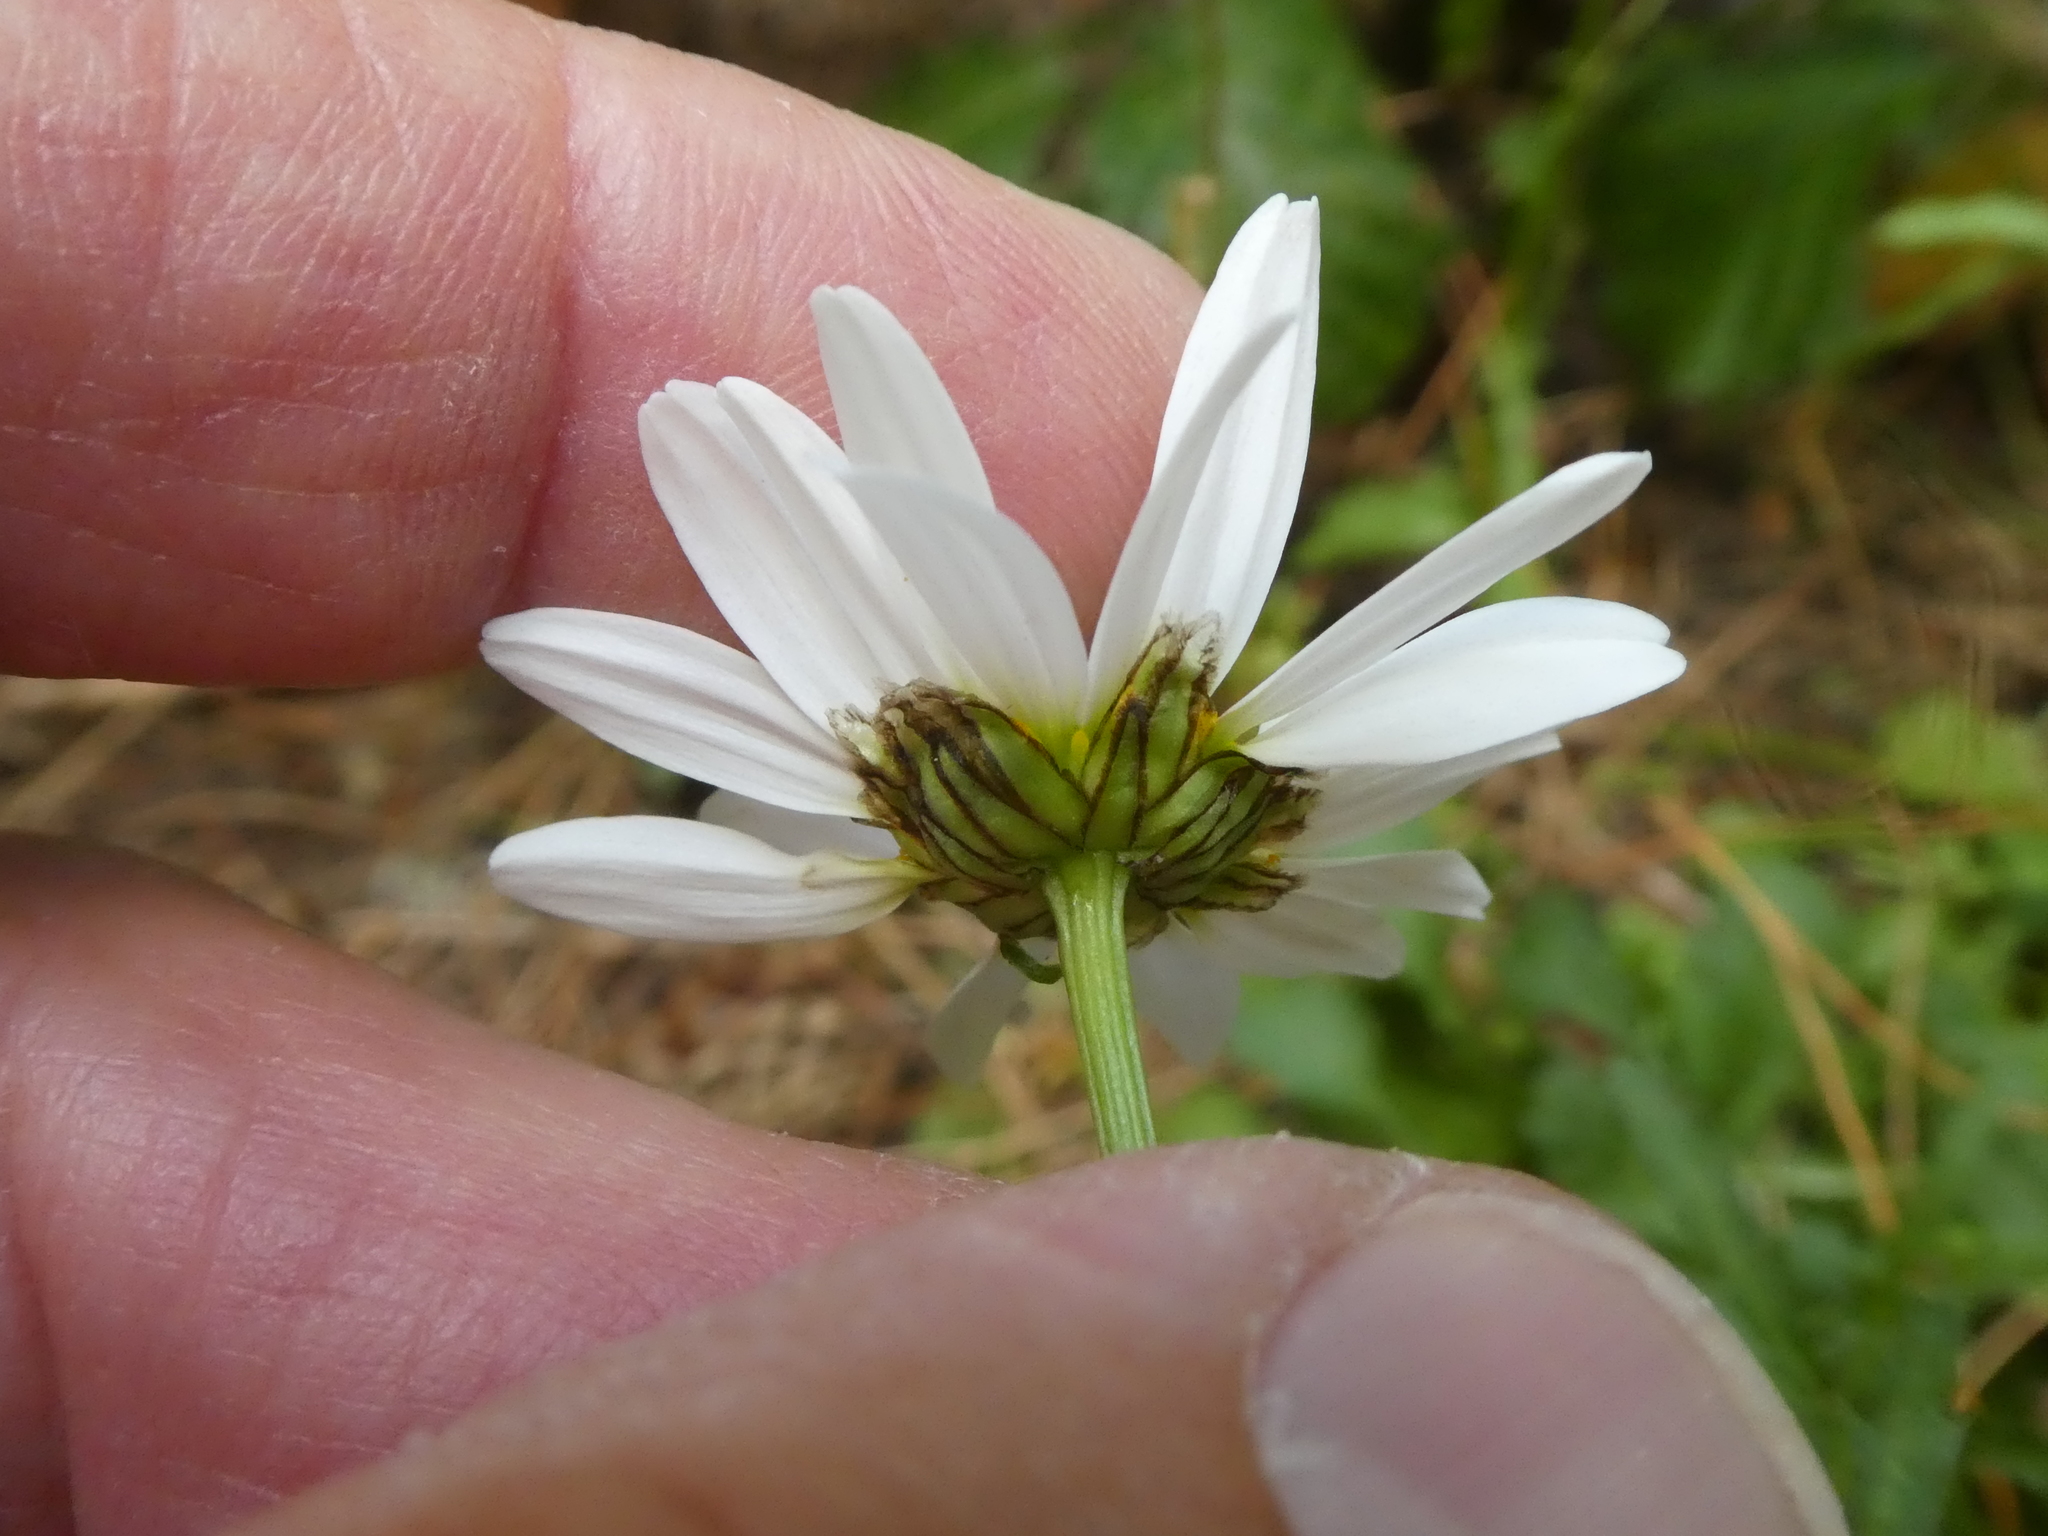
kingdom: Plantae
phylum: Tracheophyta
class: Magnoliopsida
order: Asterales
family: Asteraceae
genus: Leucanthemum
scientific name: Leucanthemum vulgare
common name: Oxeye daisy
